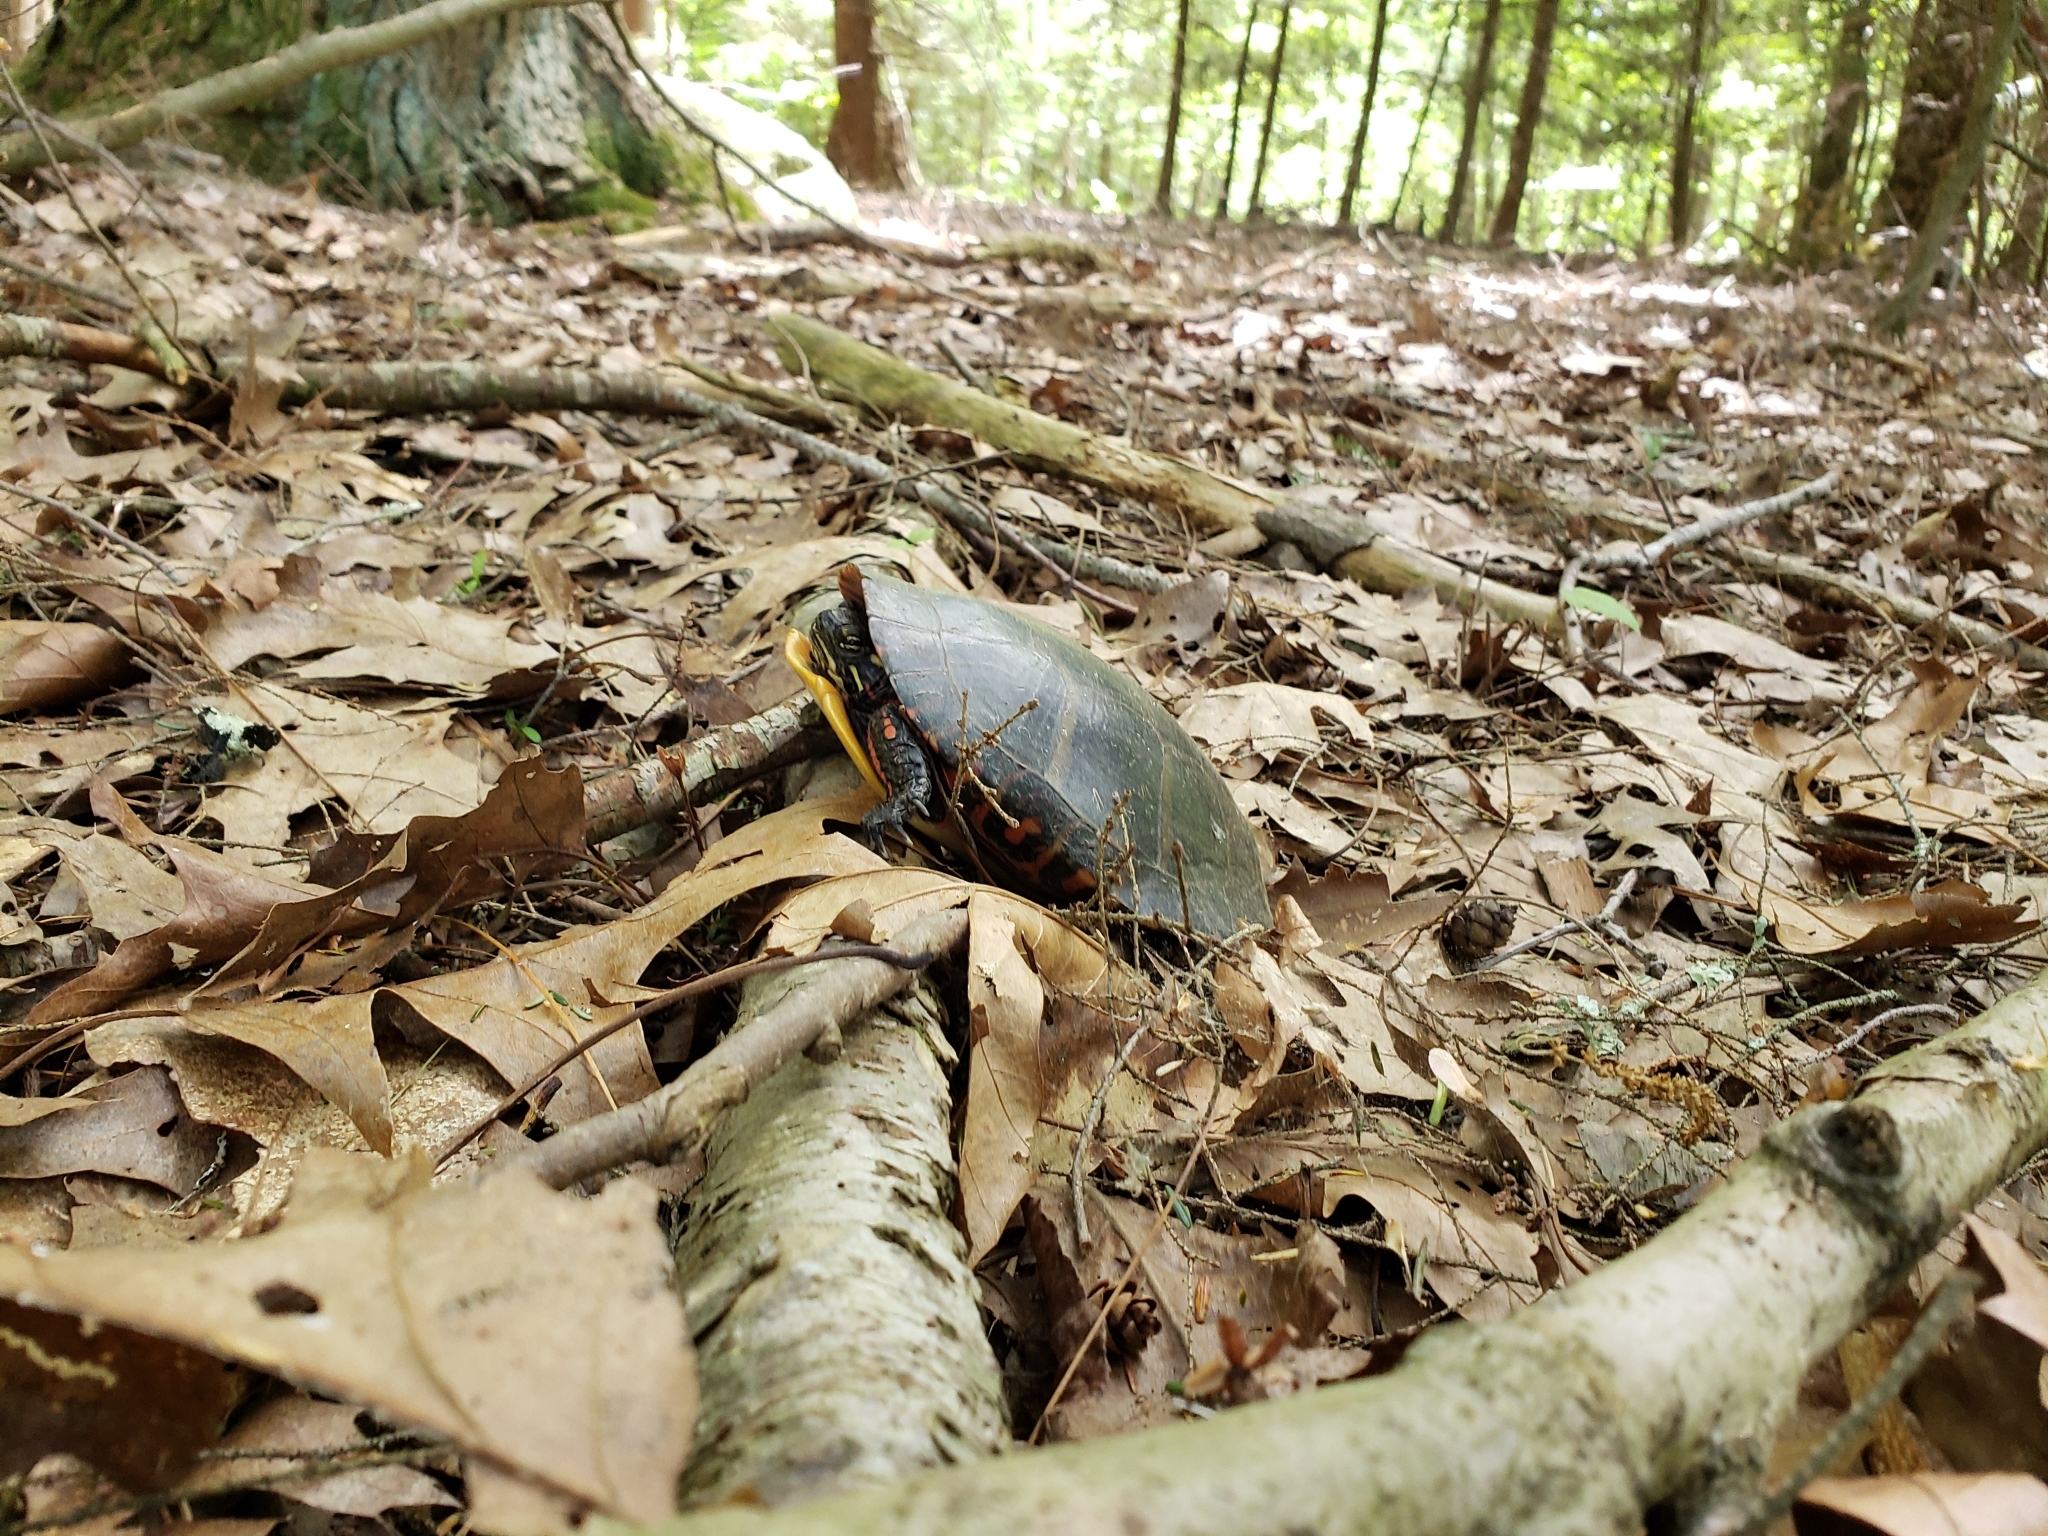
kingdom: Animalia
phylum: Chordata
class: Testudines
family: Emydidae
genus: Chrysemys
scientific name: Chrysemys picta
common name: Painted turtle
